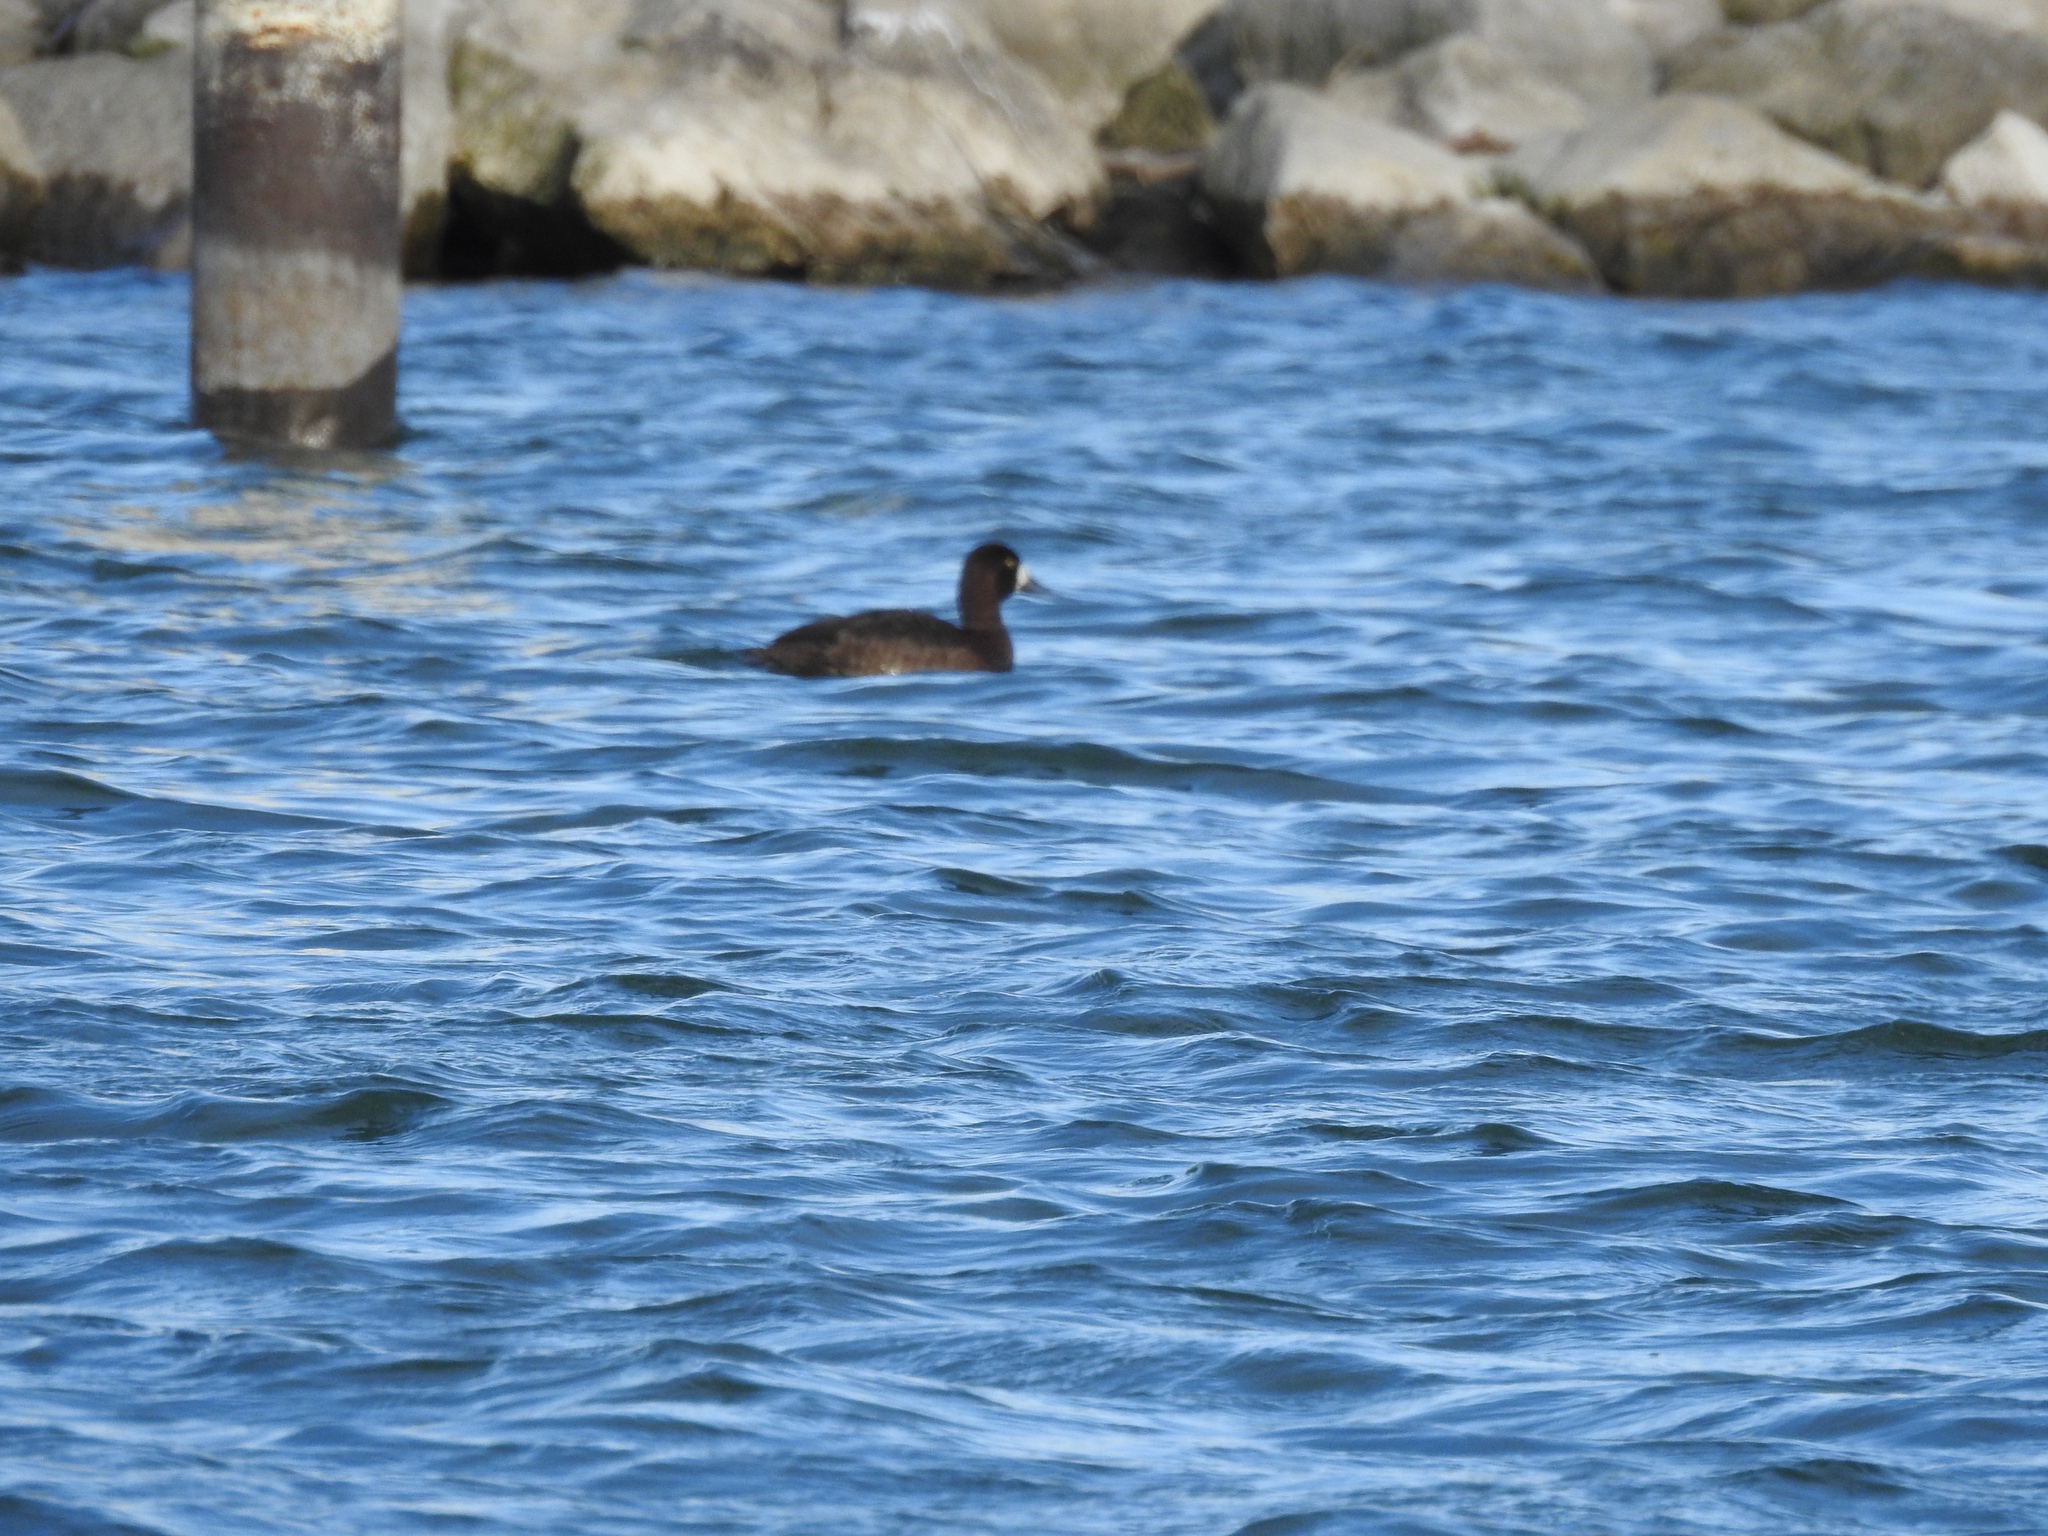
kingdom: Animalia
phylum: Chordata
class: Aves
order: Anseriformes
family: Anatidae
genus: Aythya
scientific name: Aythya affinis
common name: Lesser scaup
